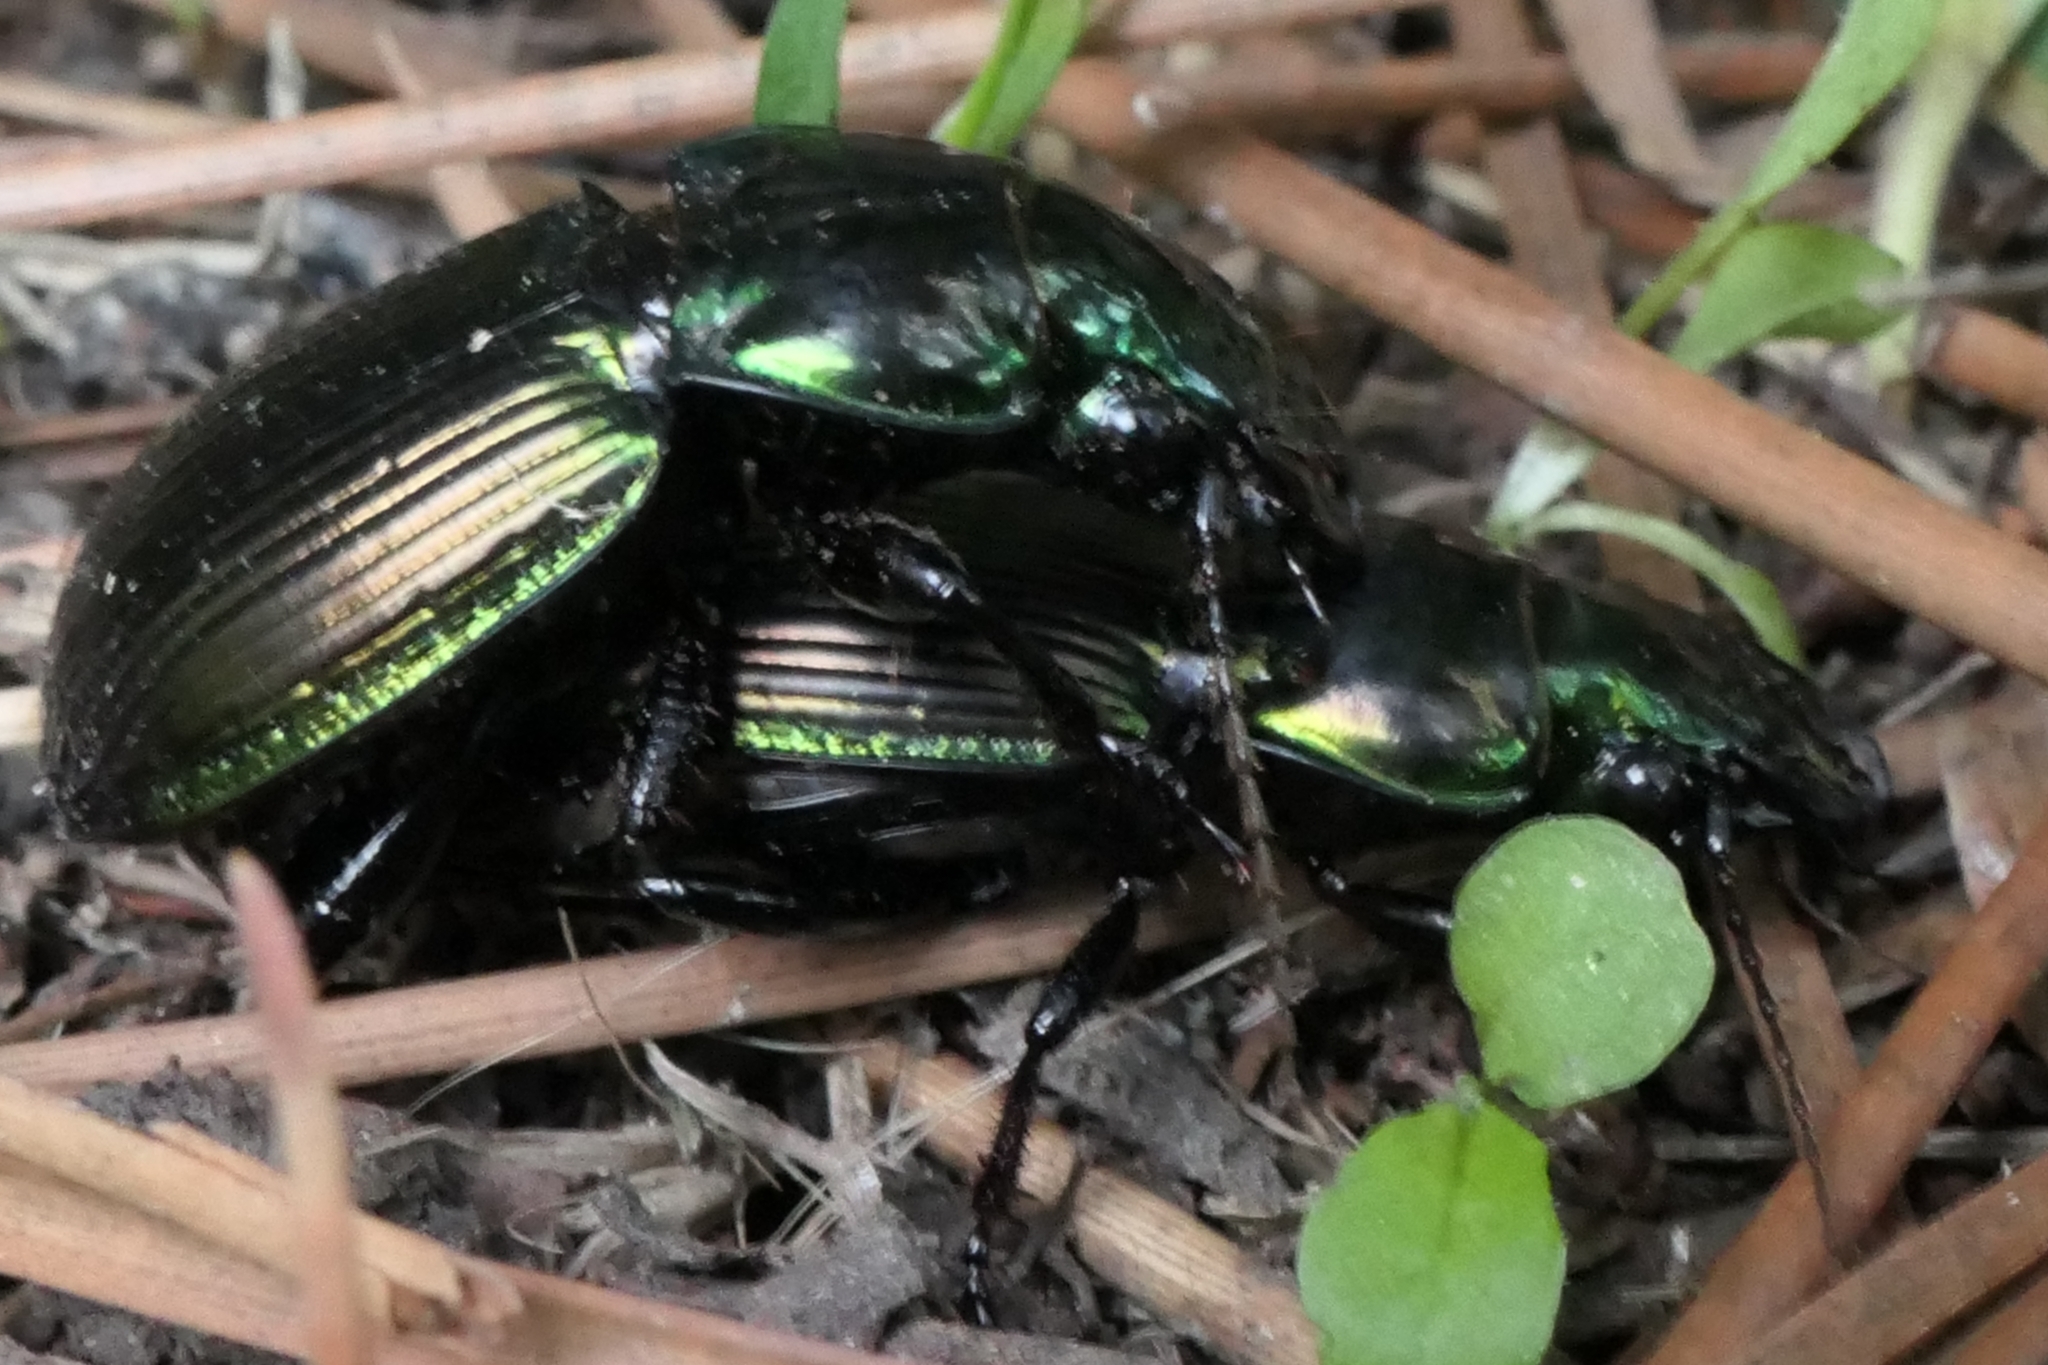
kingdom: Animalia
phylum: Arthropoda
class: Insecta
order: Coleoptera
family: Carabidae
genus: Megadromus
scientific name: Megadromus antarcticus
